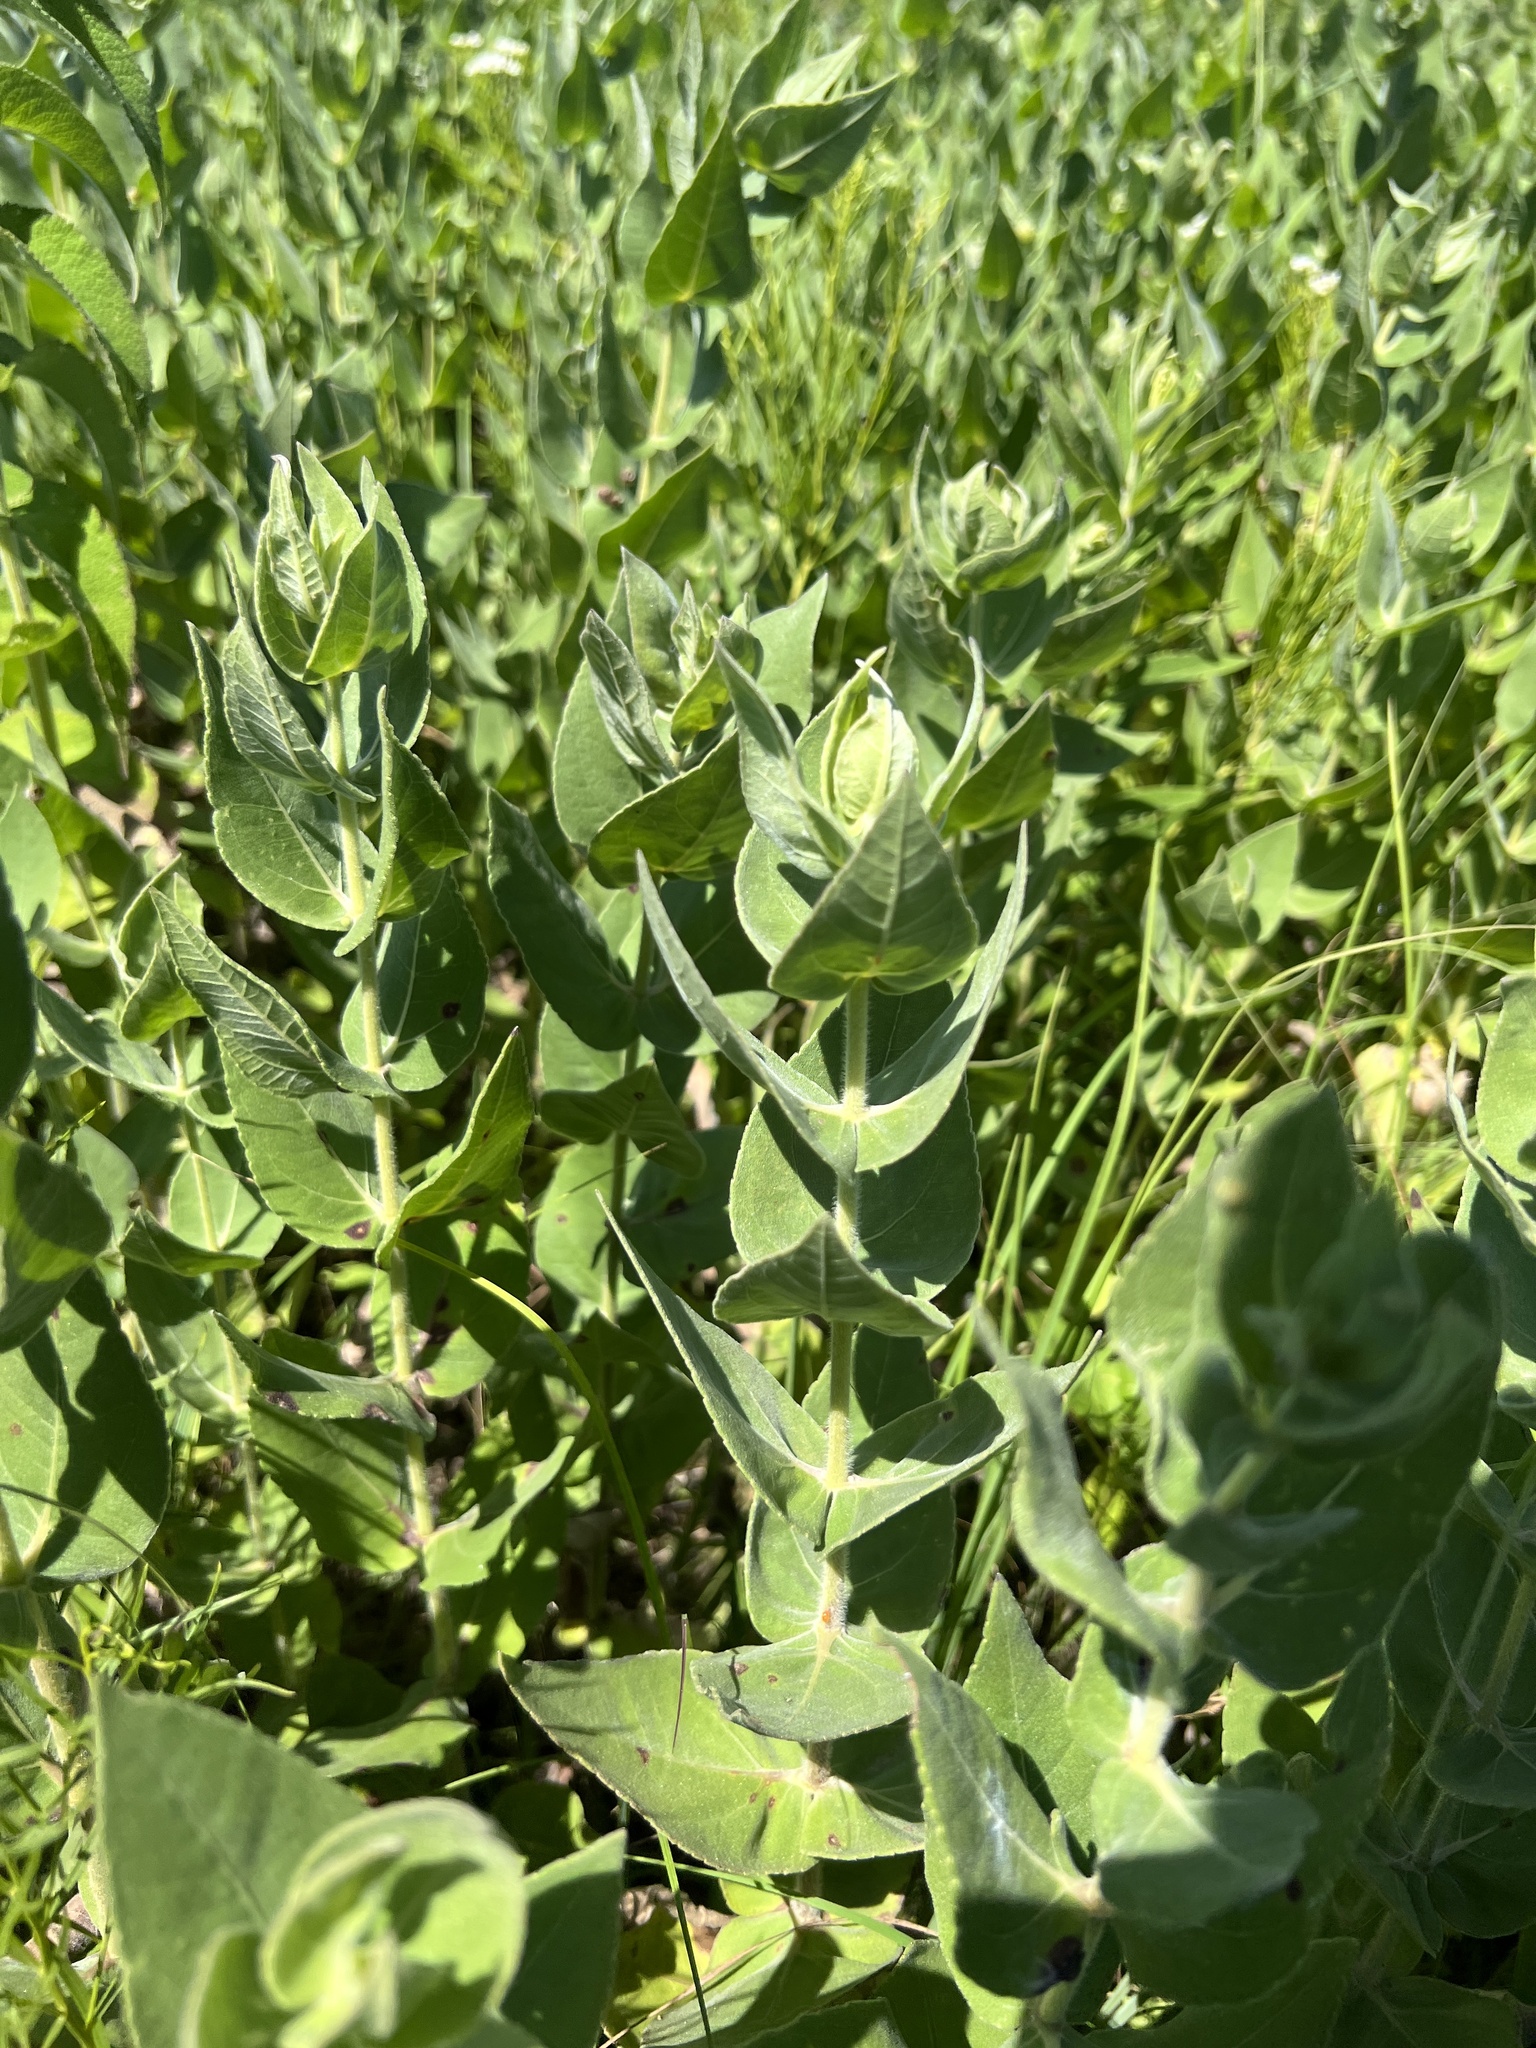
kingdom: Plantae
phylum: Tracheophyta
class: Magnoliopsida
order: Asterales
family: Asteraceae
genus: Helianthus
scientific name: Helianthus mollis
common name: Ashy sunflower
